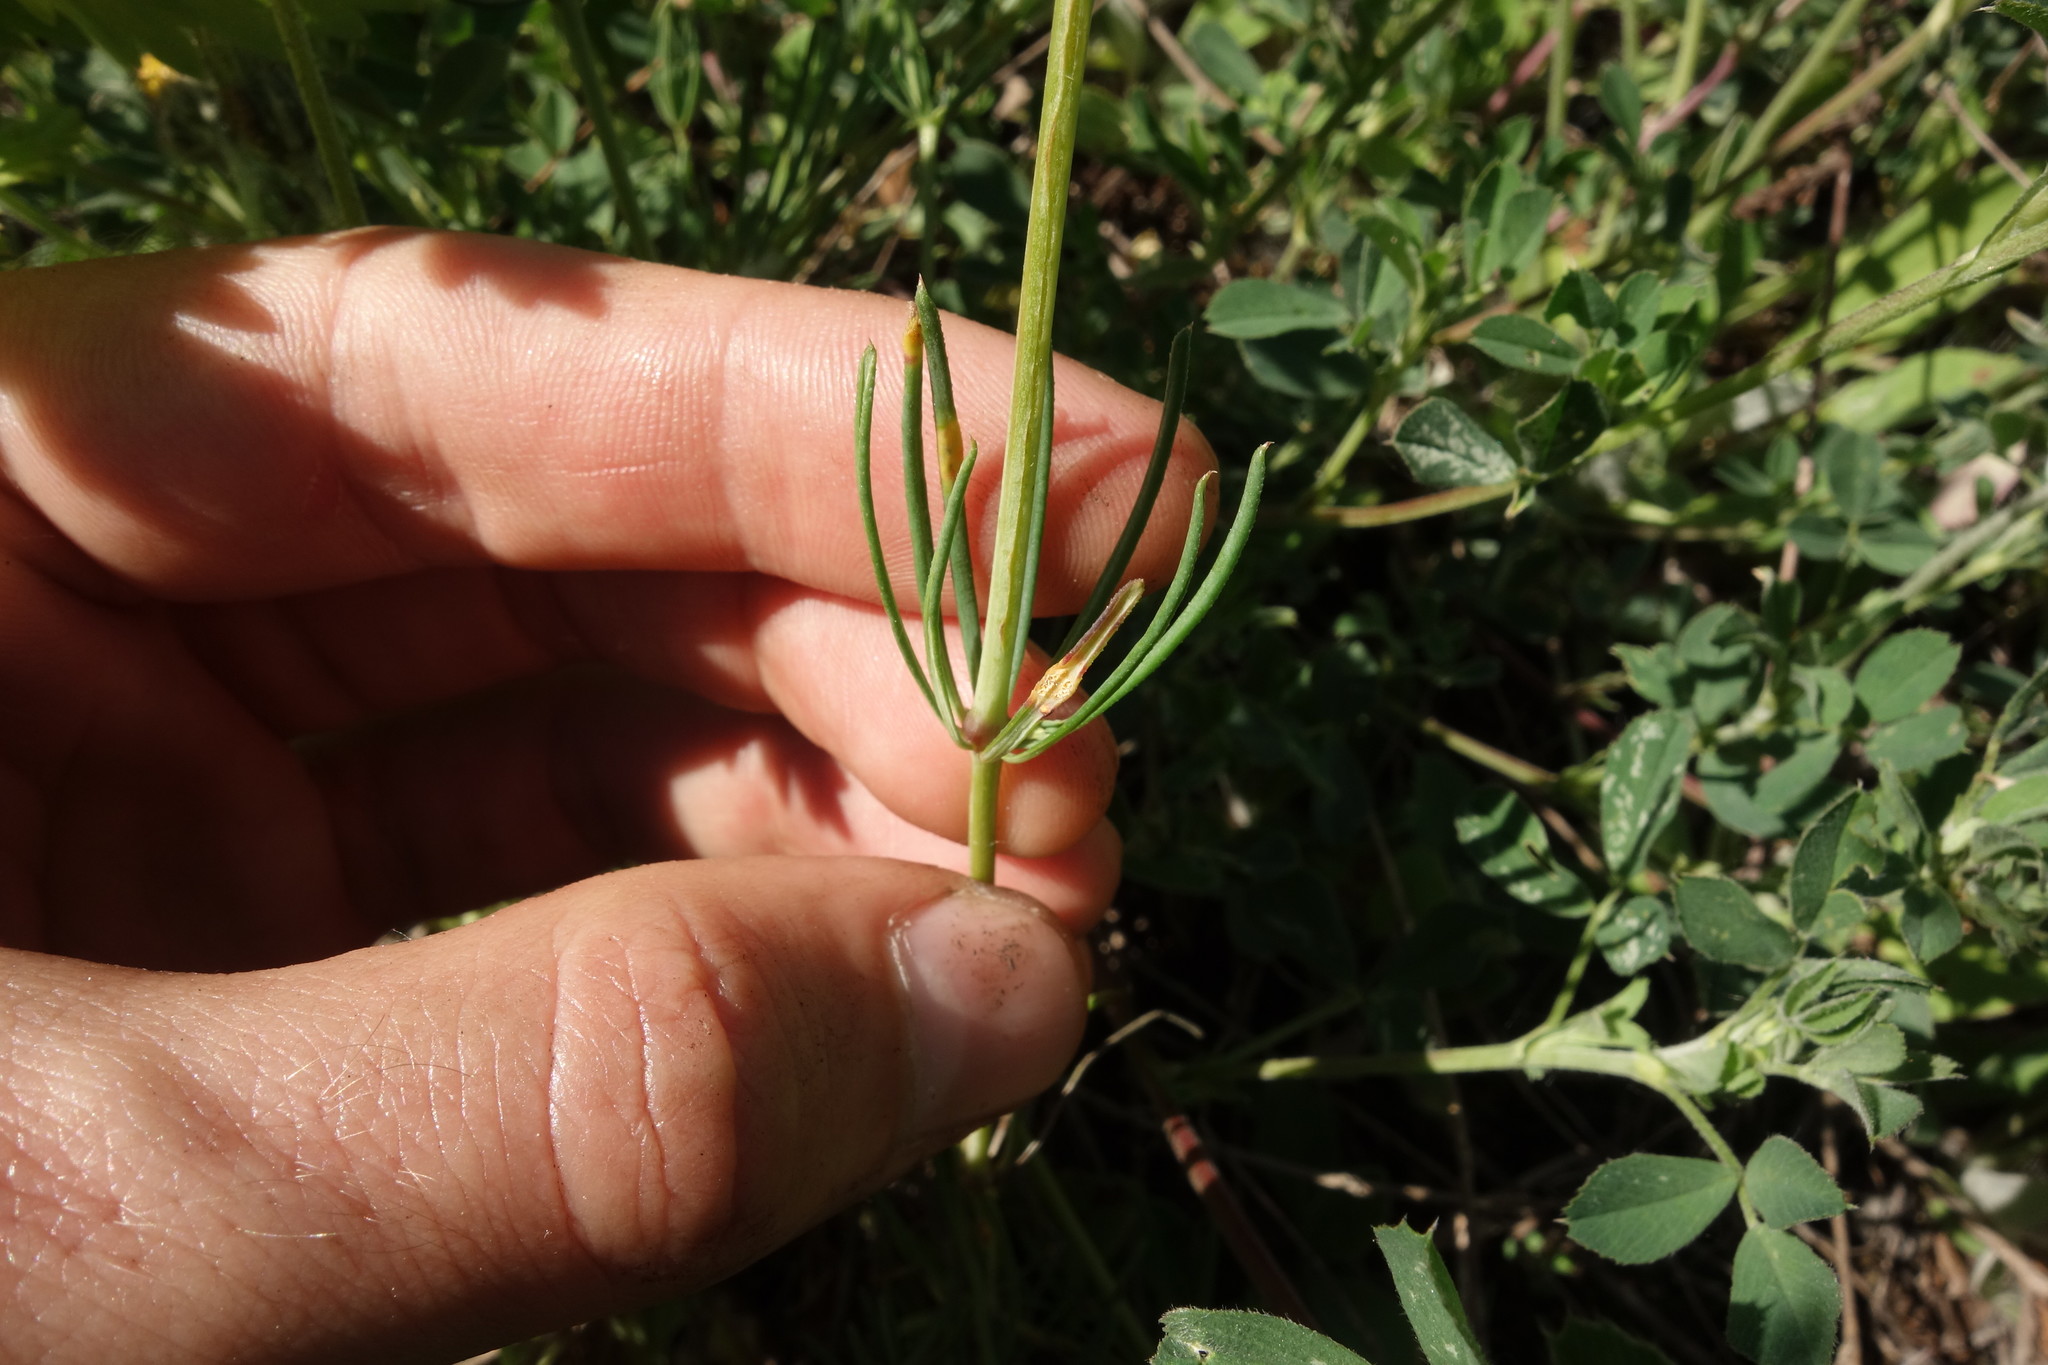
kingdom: Plantae
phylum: Tracheophyta
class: Magnoliopsida
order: Gentianales
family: Rubiaceae
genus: Galium
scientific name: Galium octonarium
